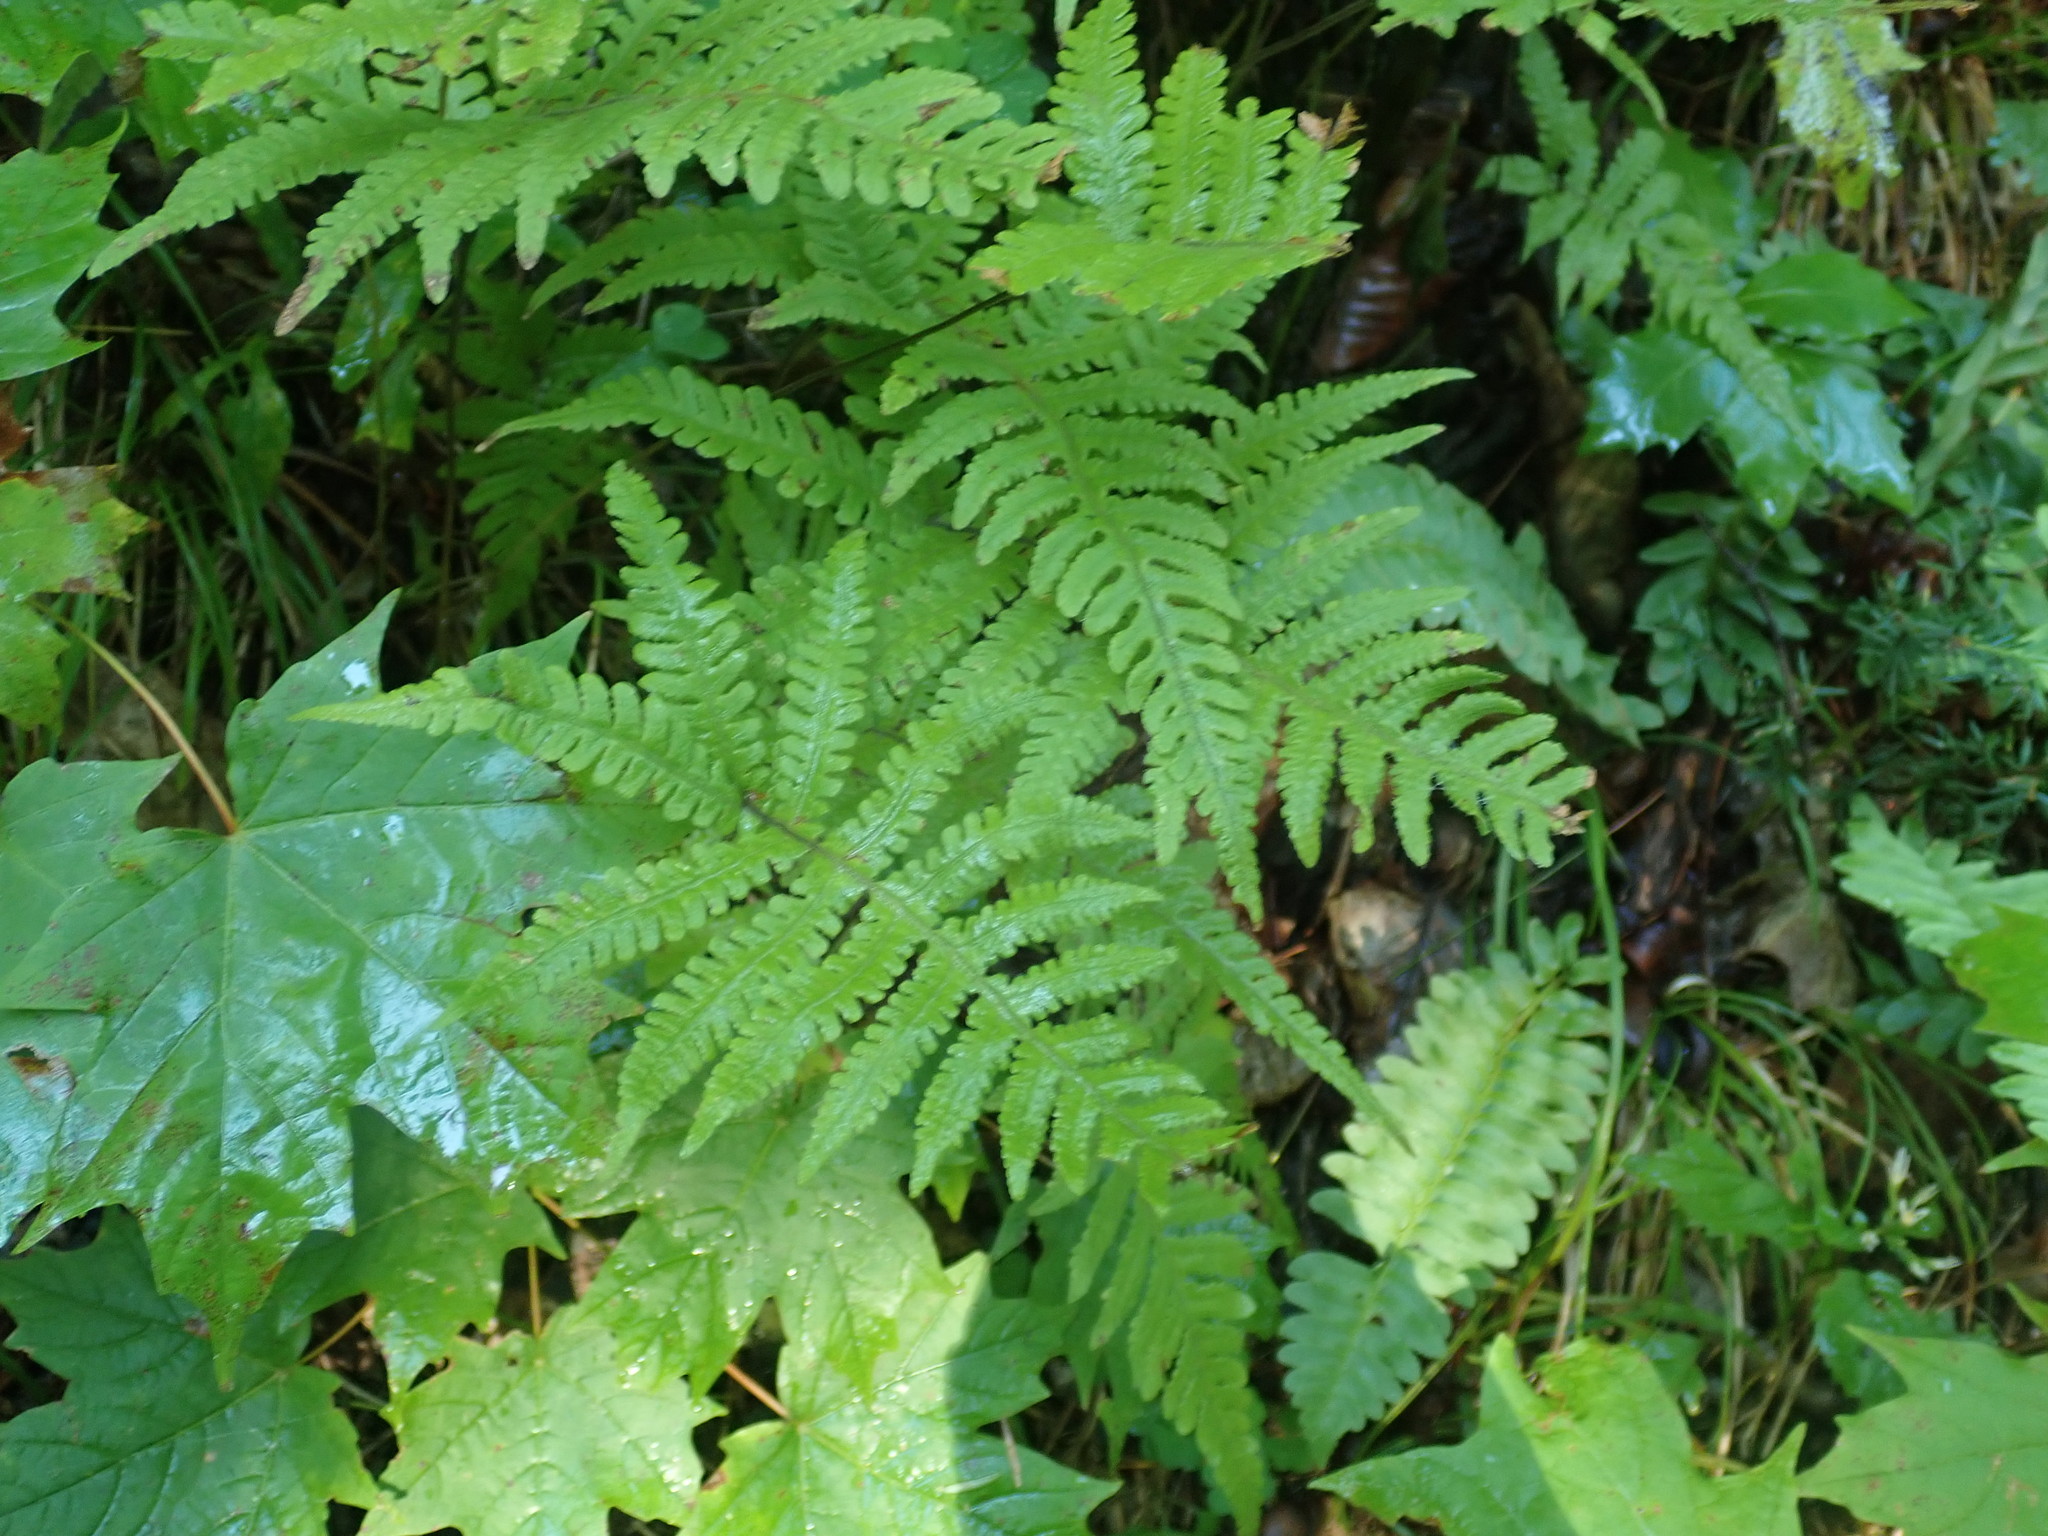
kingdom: Plantae
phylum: Tracheophyta
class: Polypodiopsida
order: Polypodiales
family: Thelypteridaceae
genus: Phegopteris
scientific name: Phegopteris connectilis
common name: Beech fern
